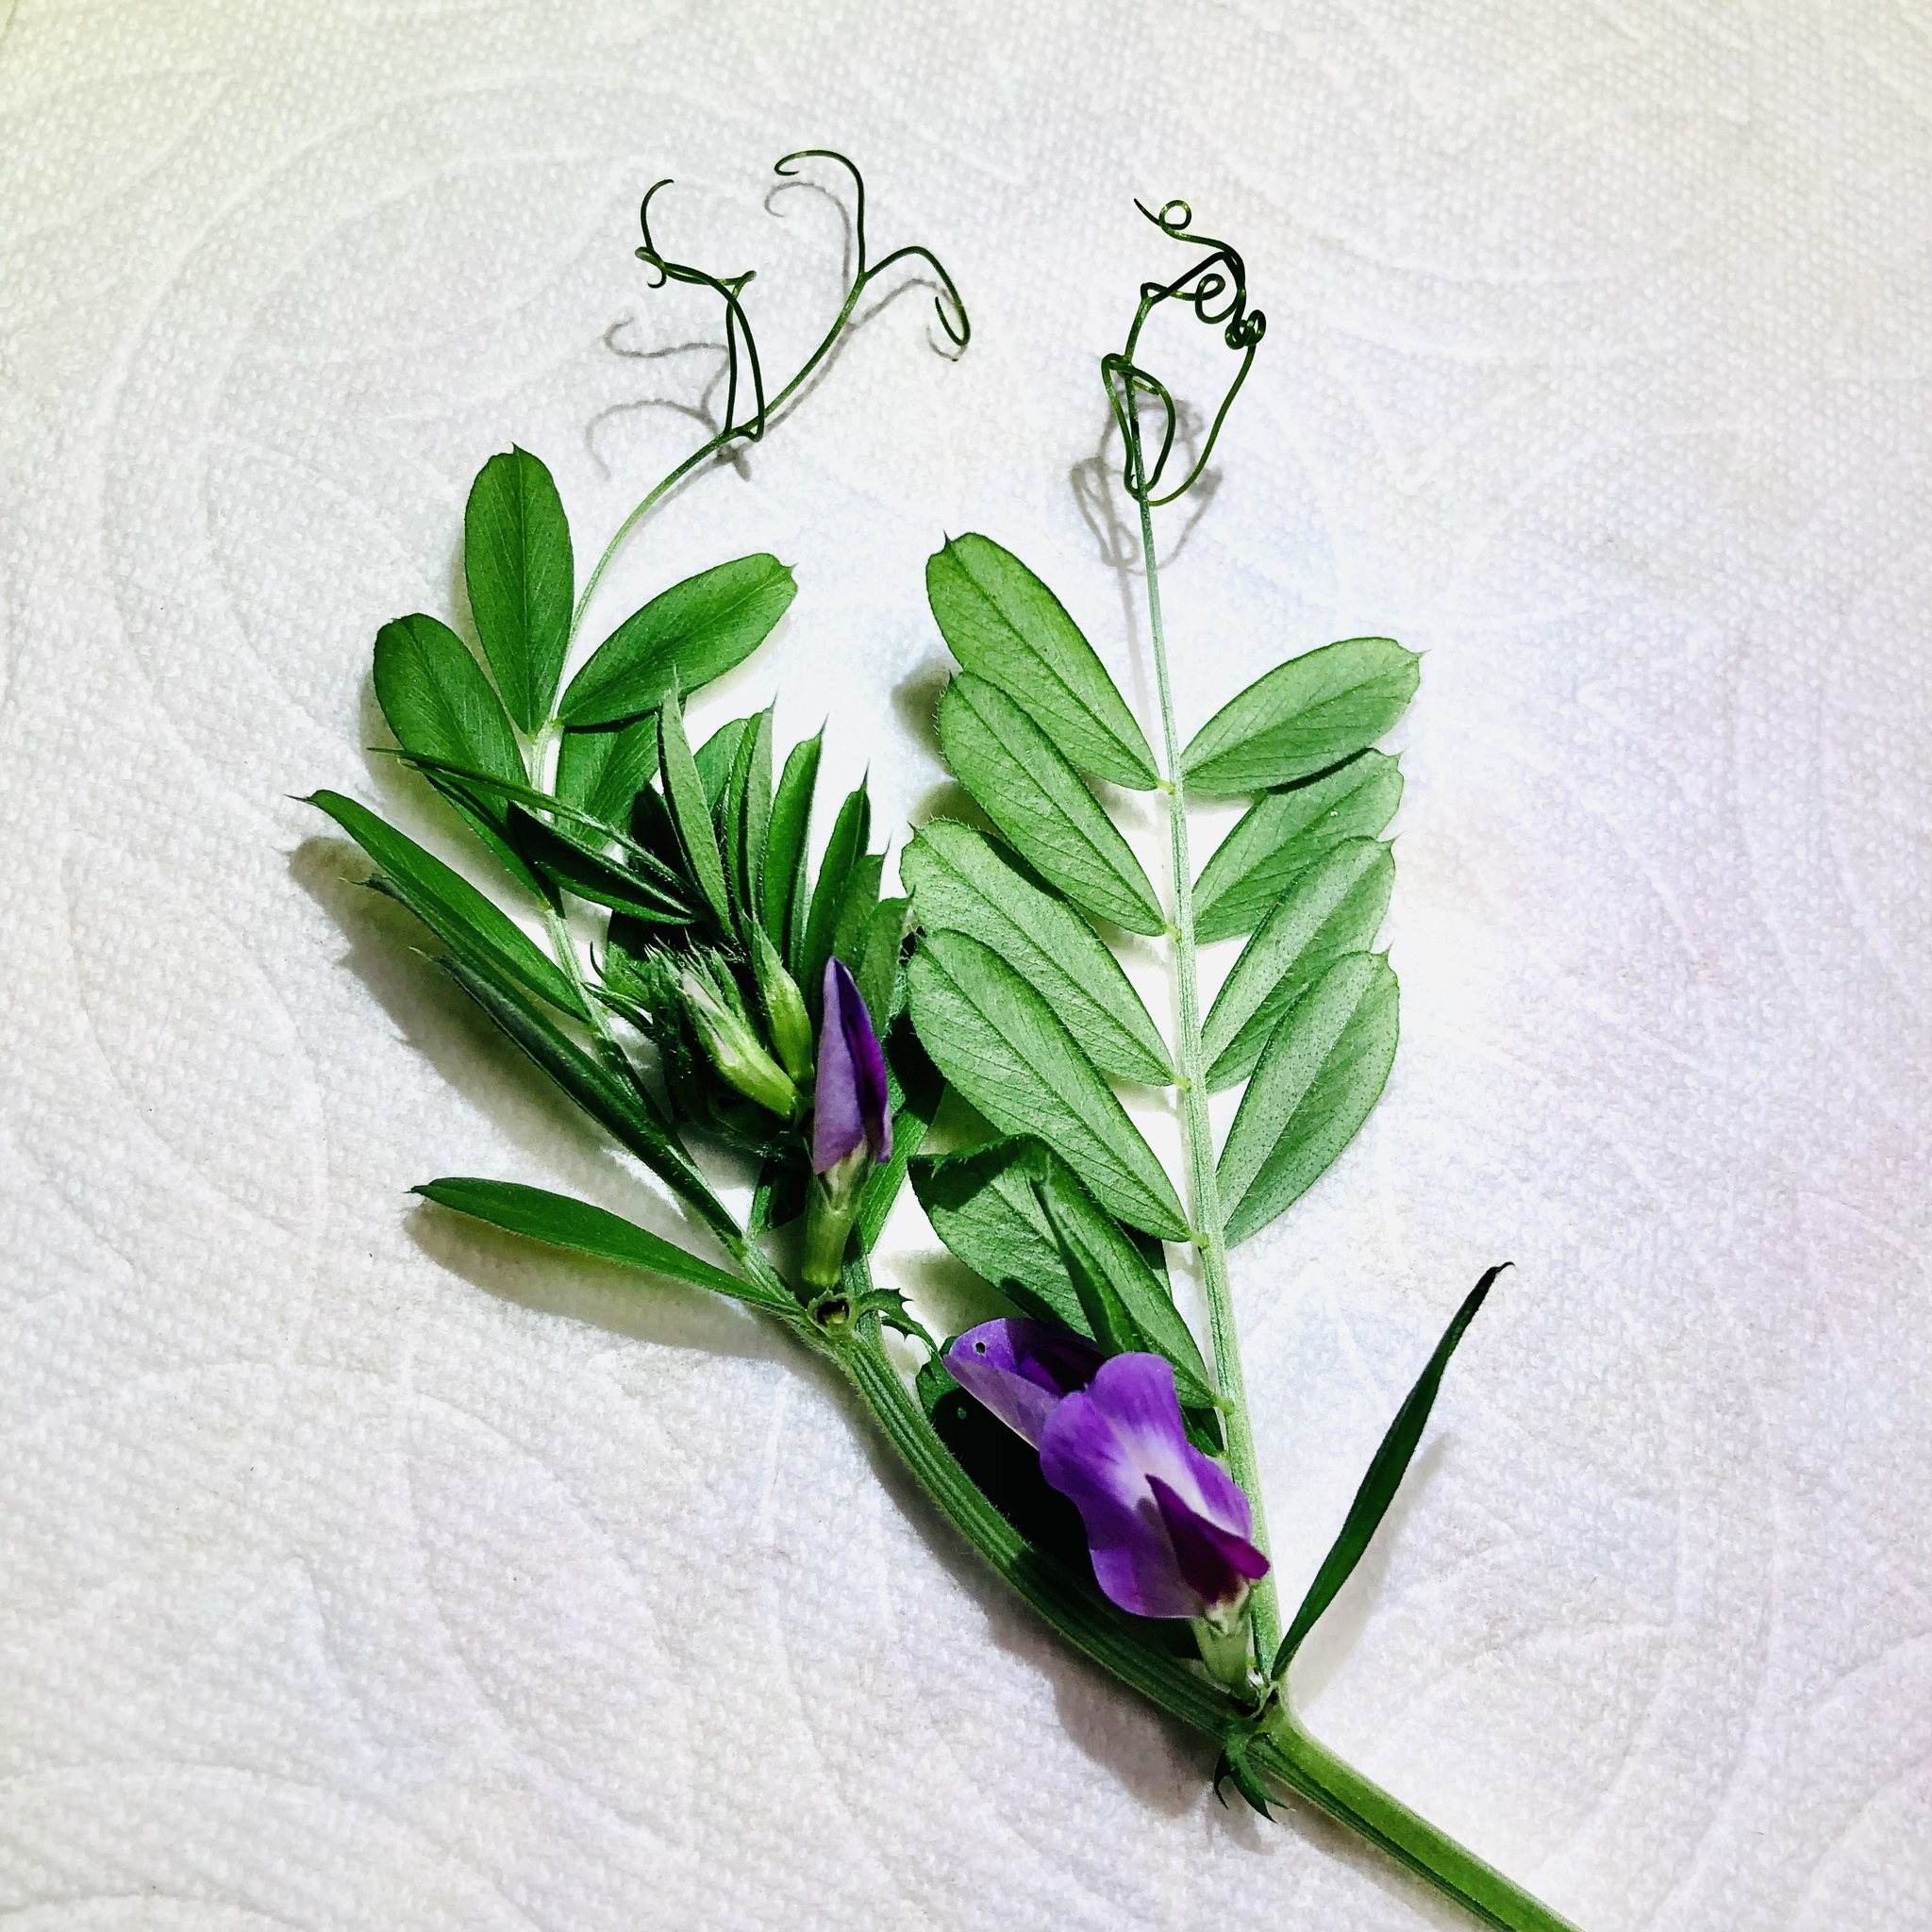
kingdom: Plantae
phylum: Tracheophyta
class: Magnoliopsida
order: Fabales
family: Fabaceae
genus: Vicia
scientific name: Vicia sativa
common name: Garden vetch
